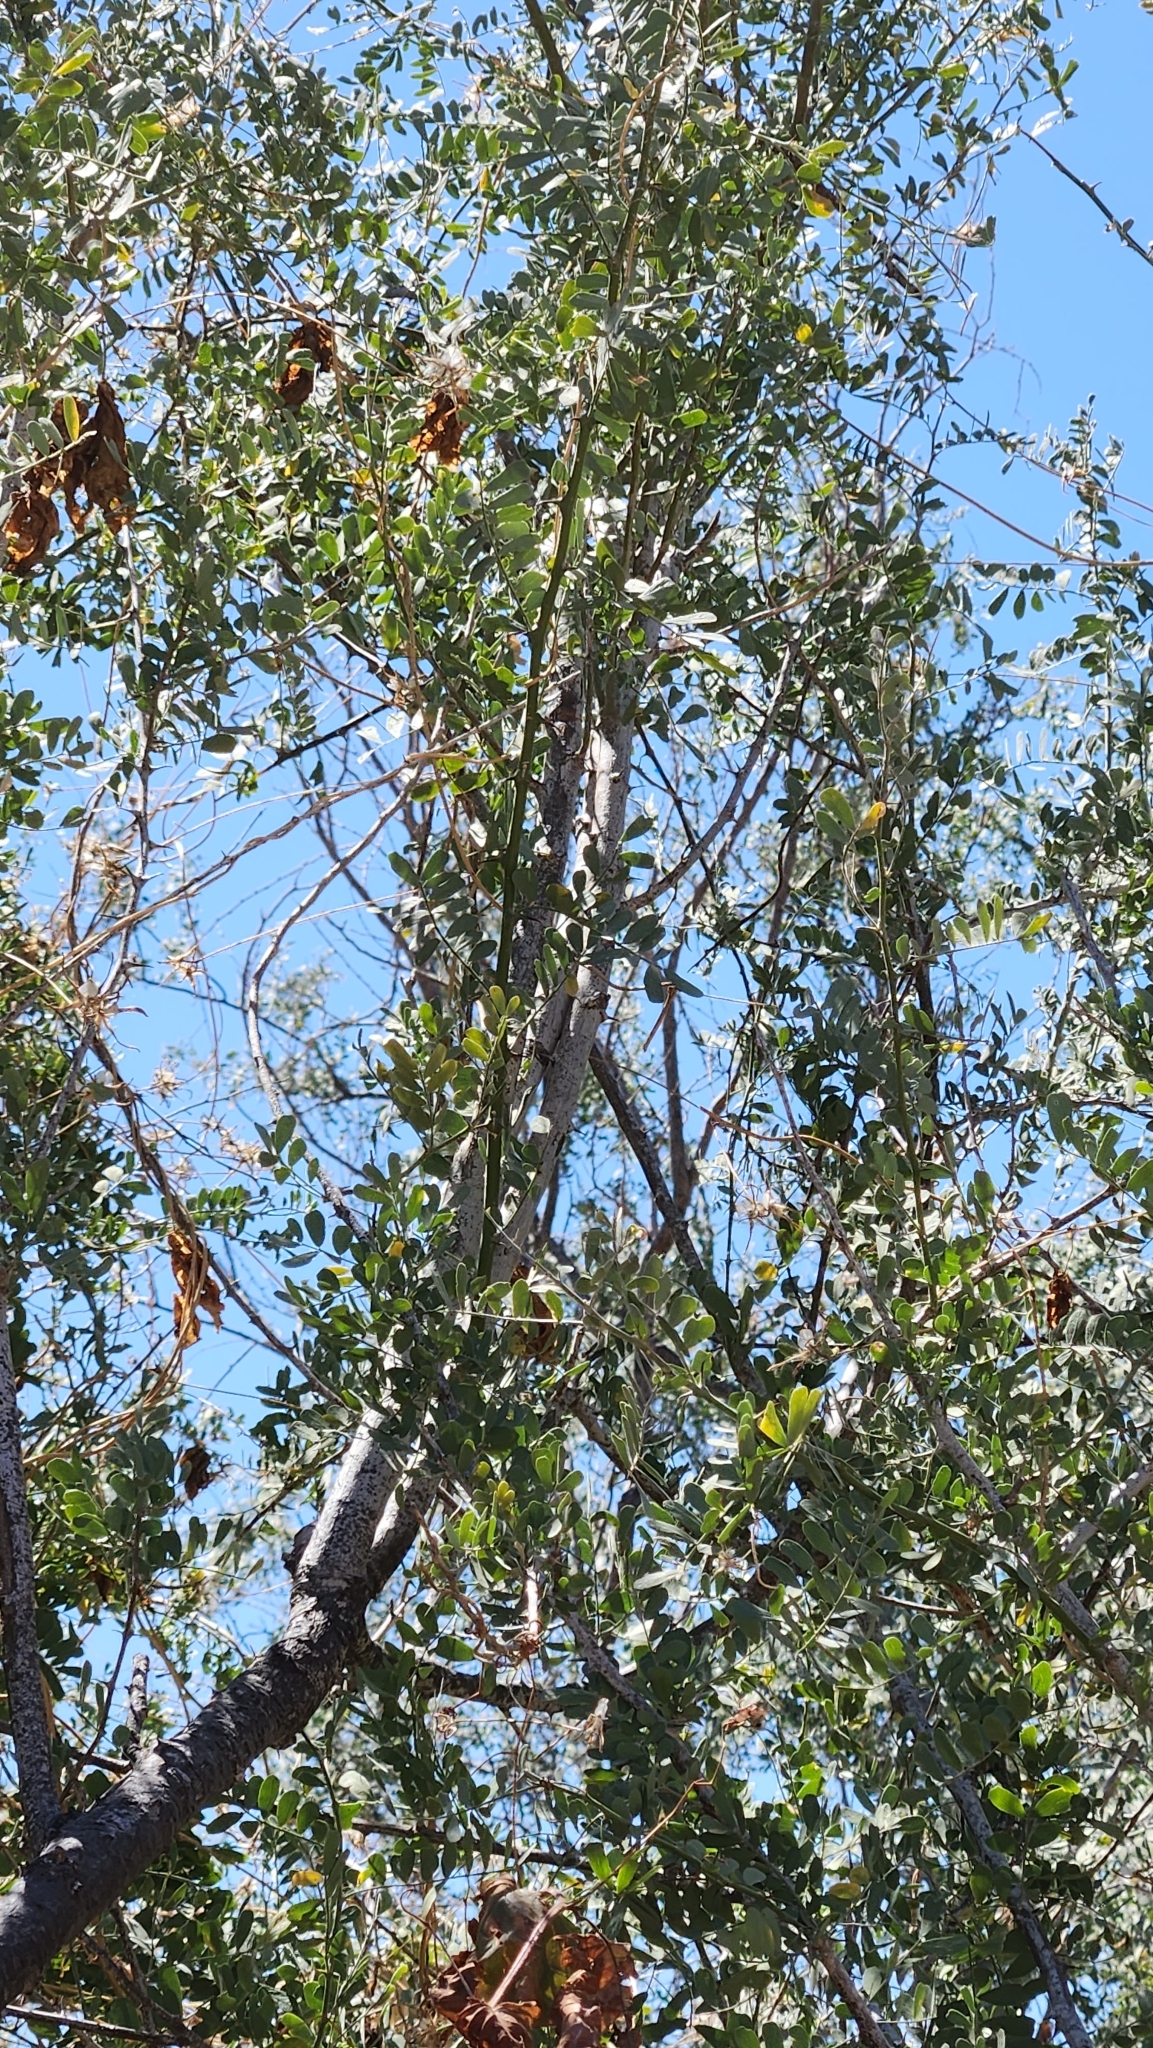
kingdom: Plantae
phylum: Tracheophyta
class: Magnoliopsida
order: Fabales
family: Fabaceae
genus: Olneya
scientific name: Olneya tesota
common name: Desert ironwood
